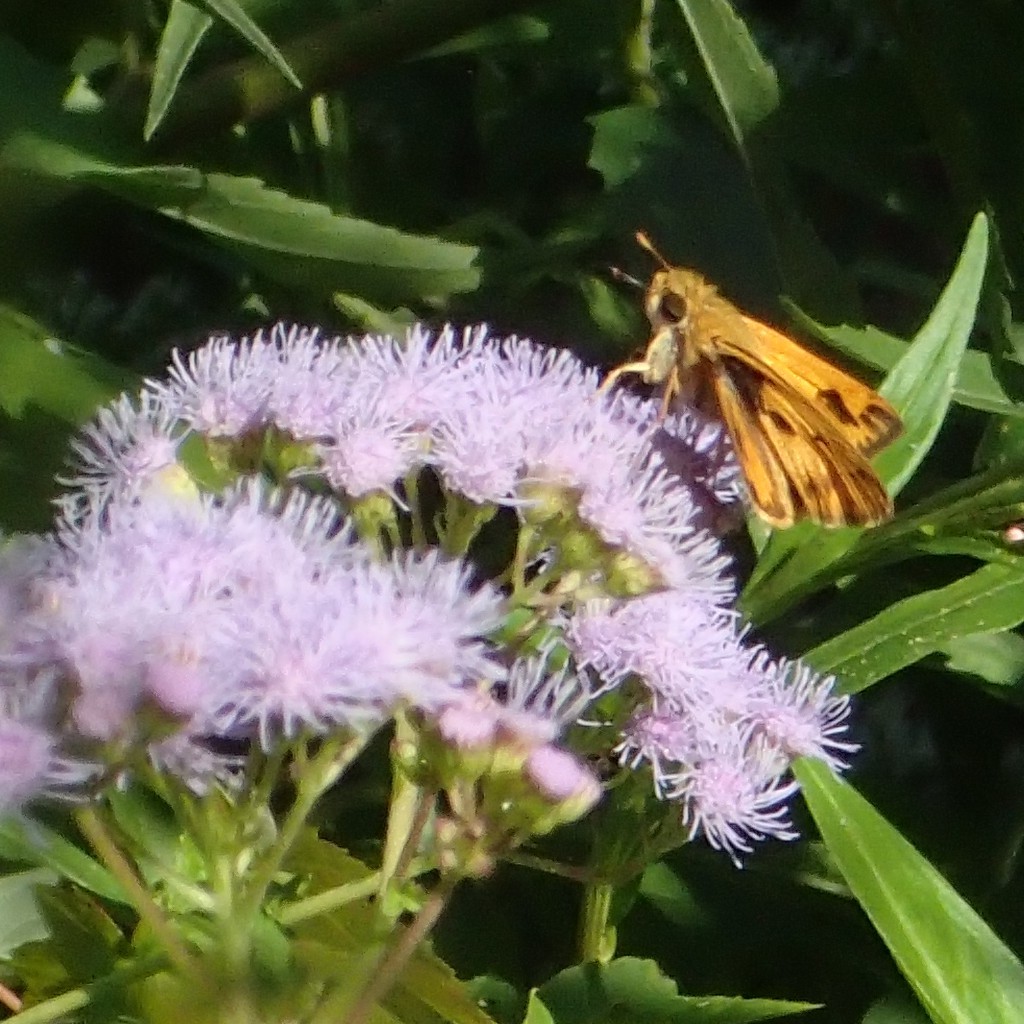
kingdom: Animalia
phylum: Arthropoda
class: Insecta
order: Lepidoptera
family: Hesperiidae
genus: Hylephila
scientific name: Hylephila phyleus
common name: Fiery skipper
